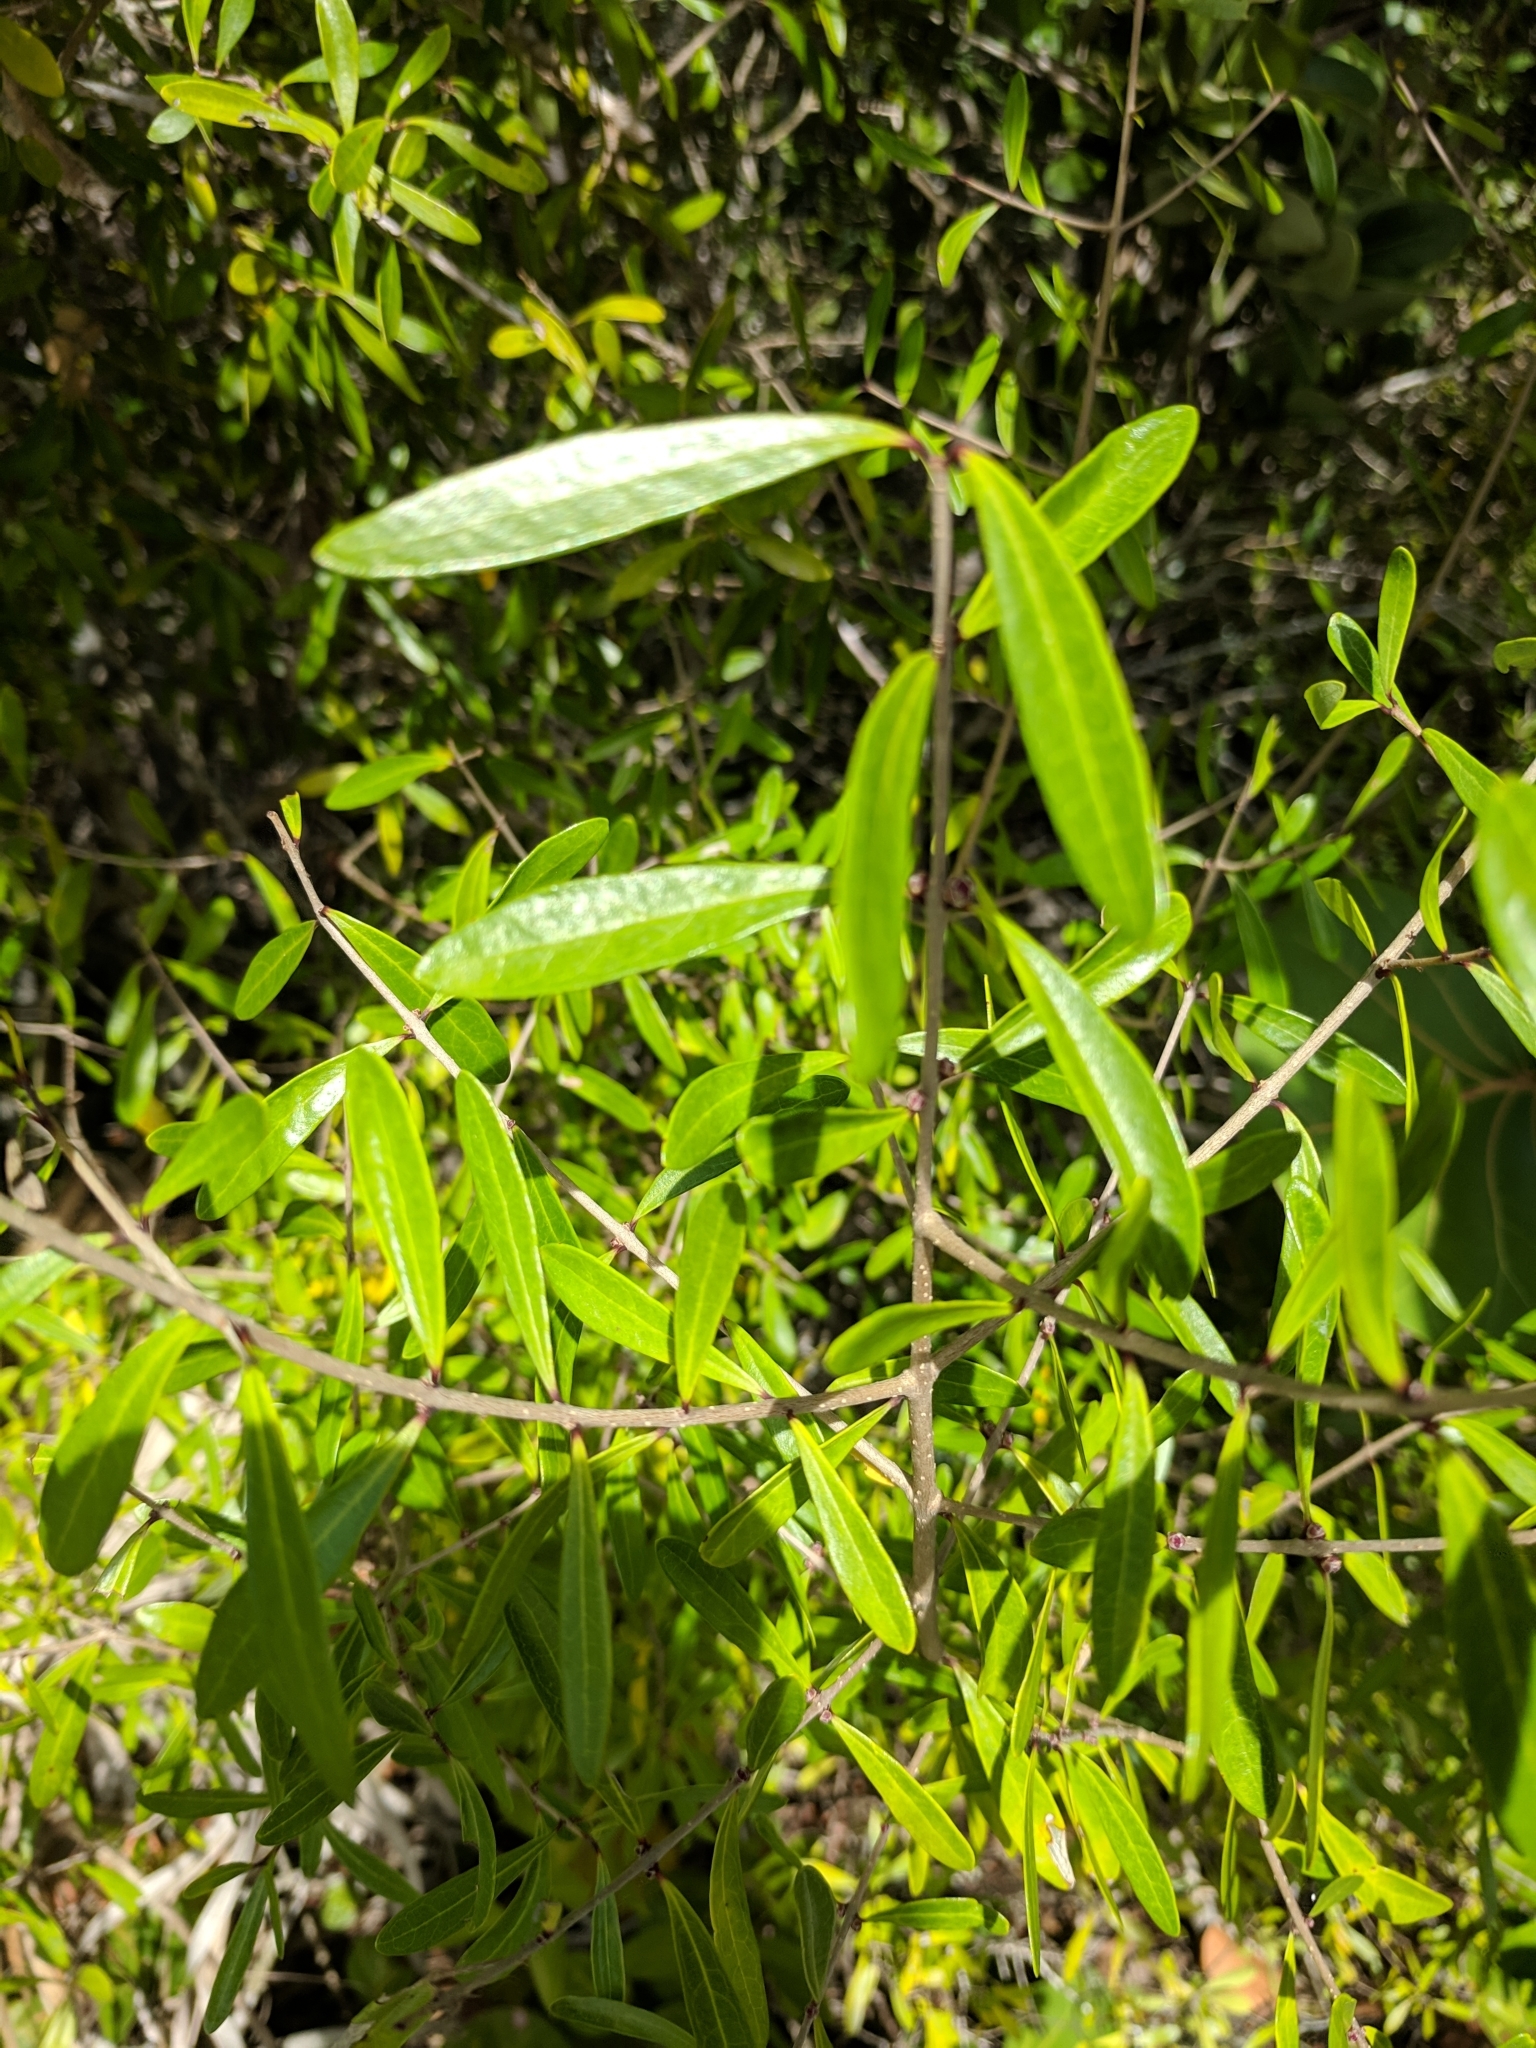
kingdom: Plantae
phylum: Tracheophyta
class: Magnoliopsida
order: Lamiales
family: Oleaceae
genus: Forestiera
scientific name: Forestiera segregata
